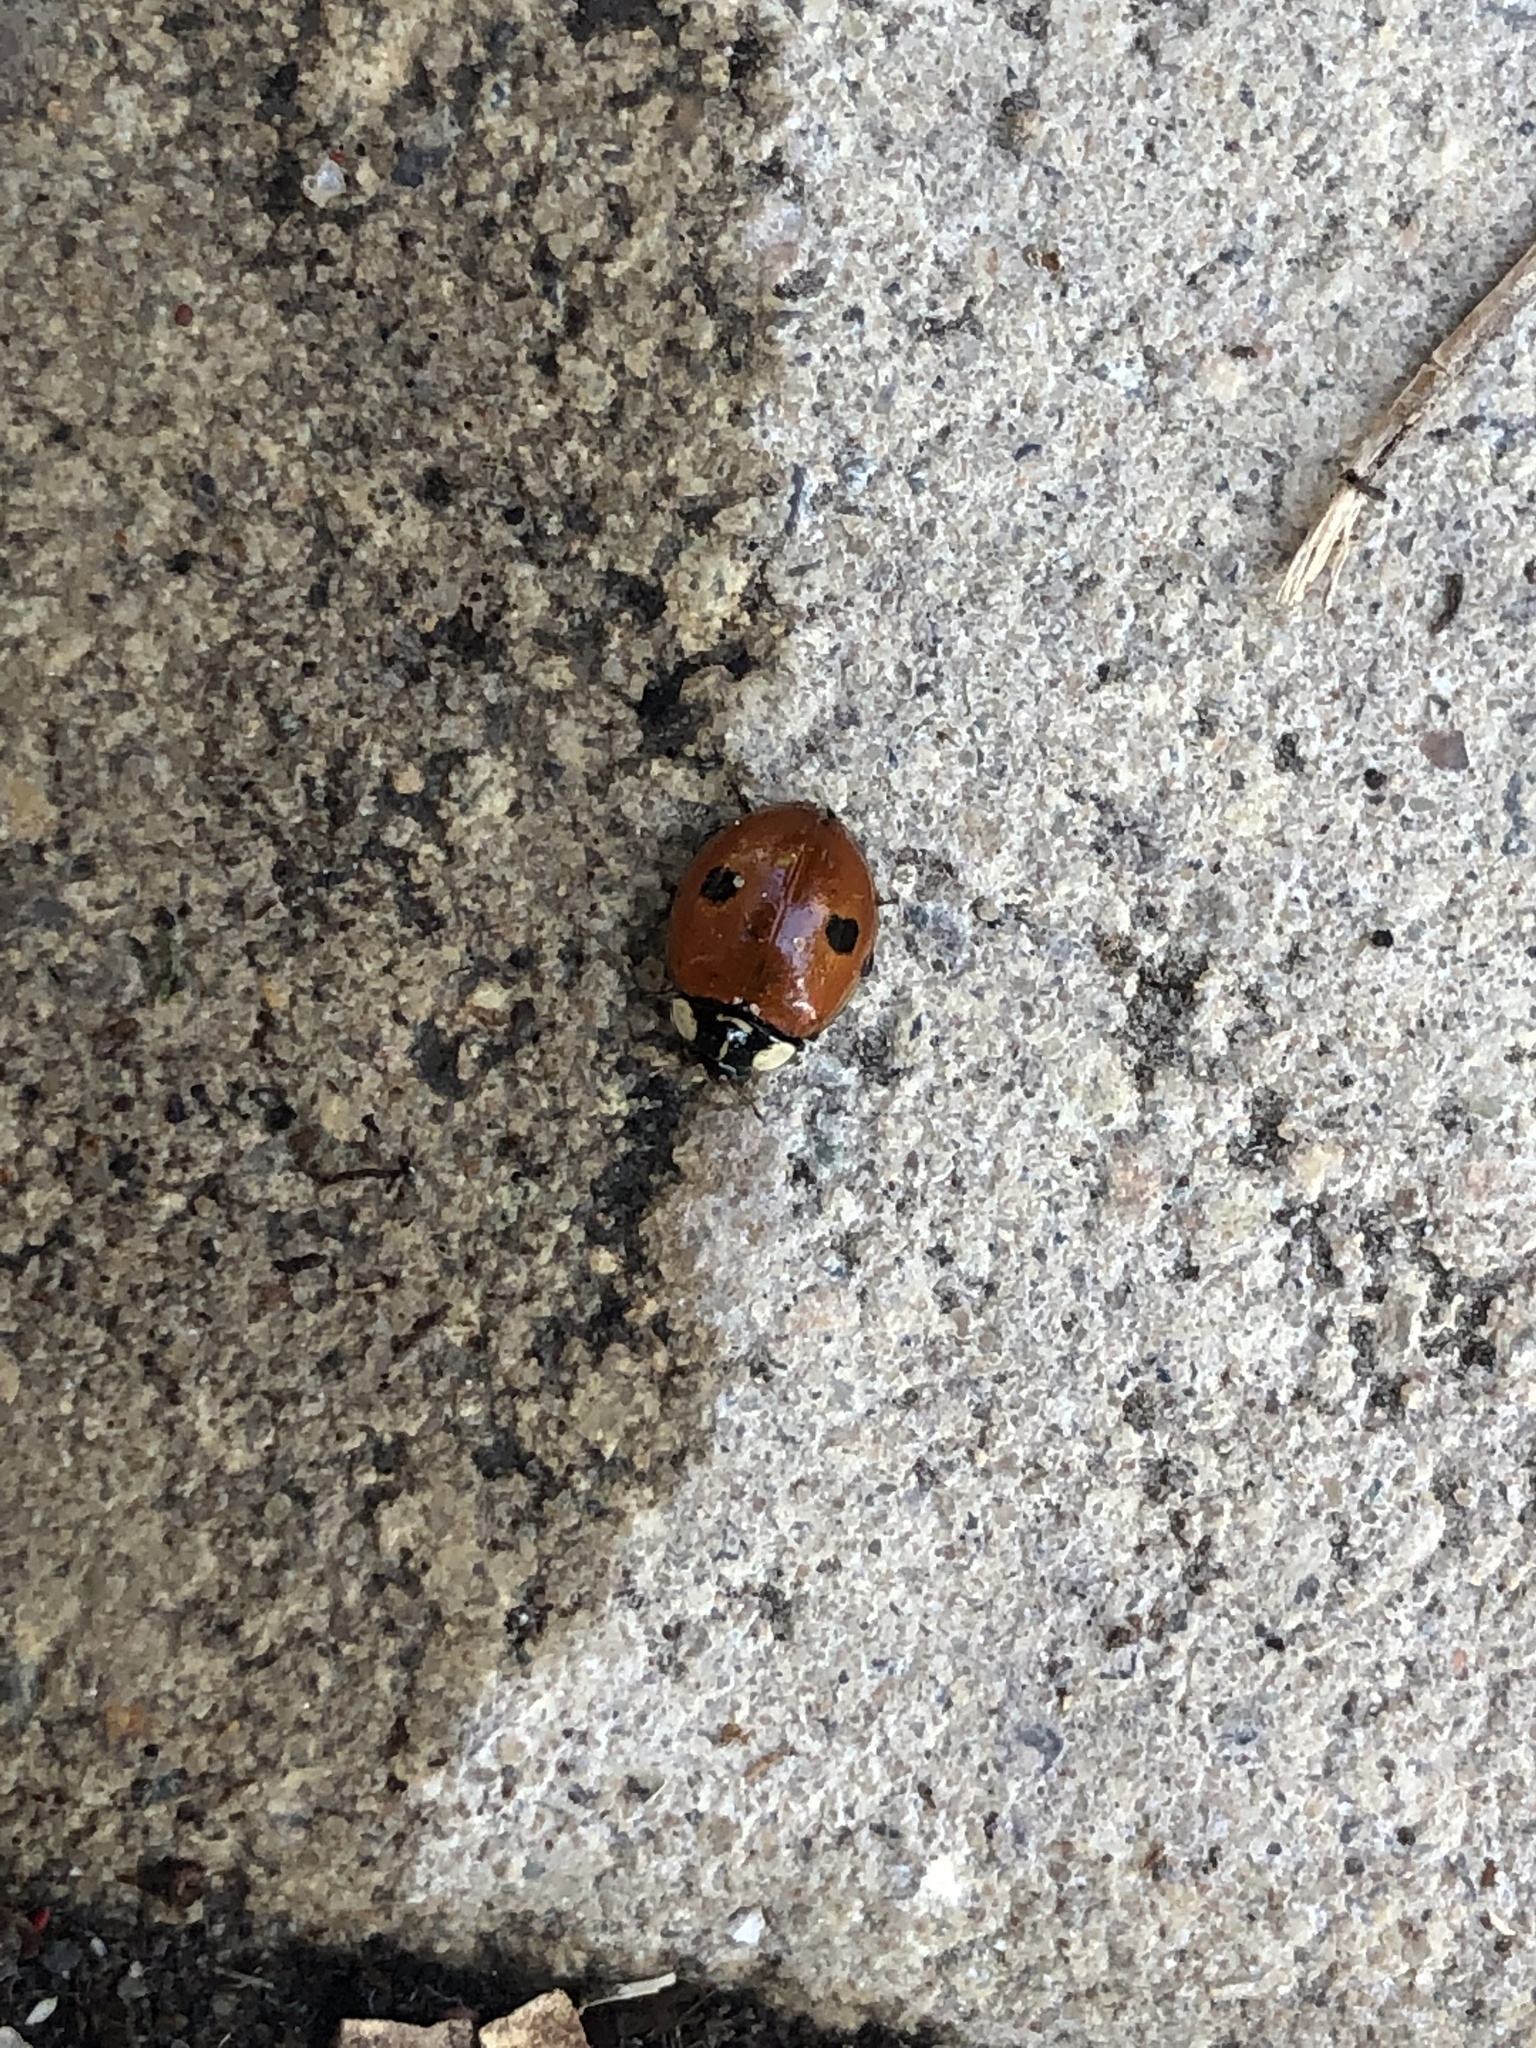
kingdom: Animalia
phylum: Arthropoda
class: Insecta
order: Coleoptera
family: Coccinellidae
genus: Adalia
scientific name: Adalia bipunctata
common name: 2-spot ladybird
